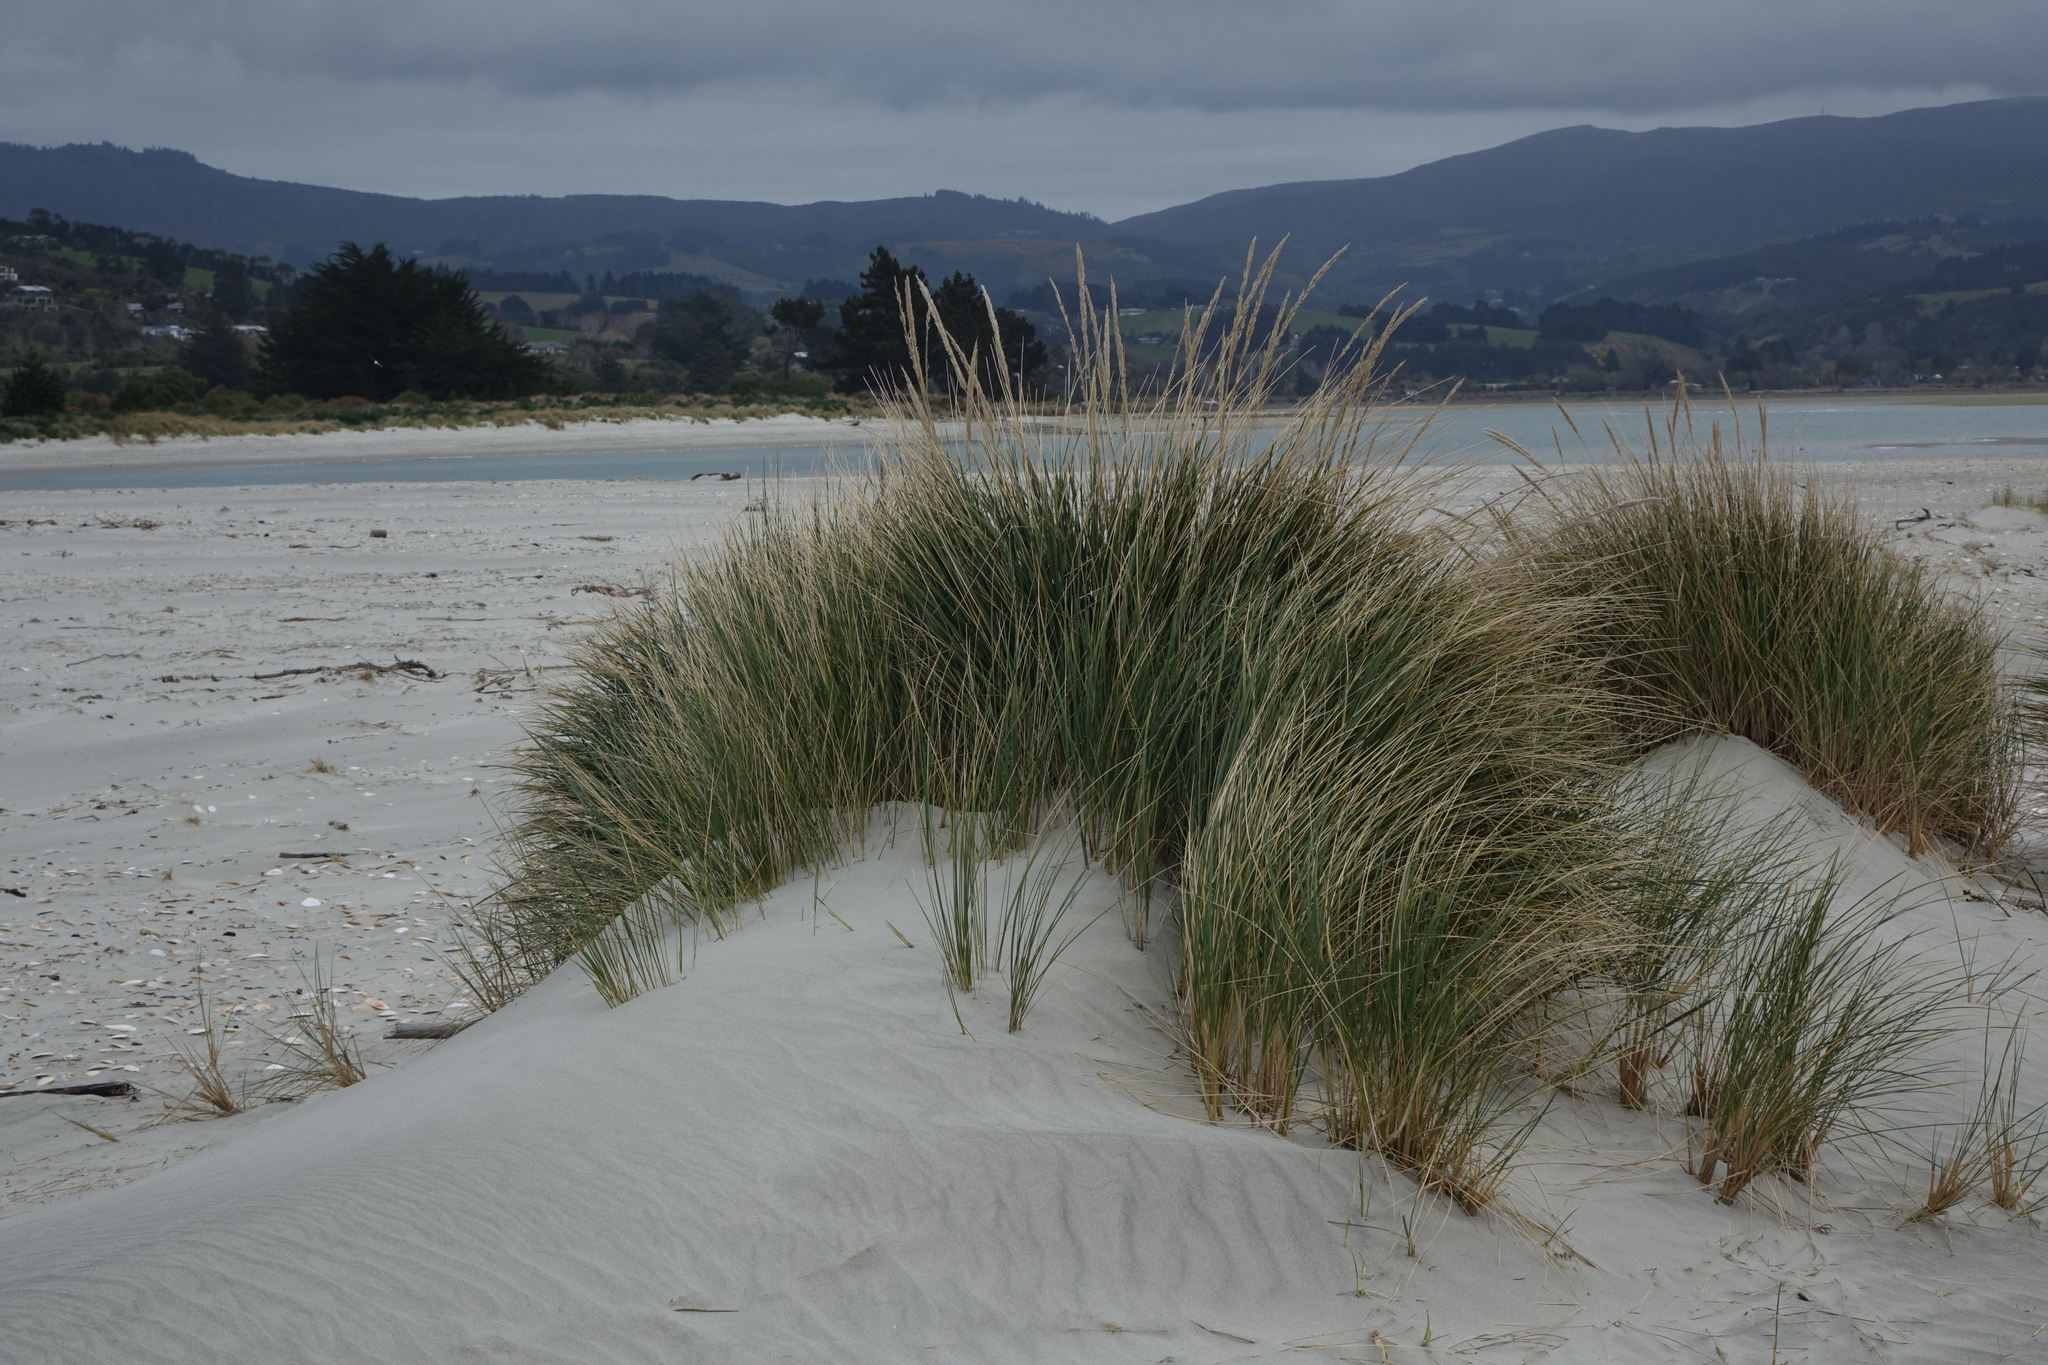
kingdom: Plantae
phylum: Tracheophyta
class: Liliopsida
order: Poales
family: Poaceae
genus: Calamagrostis
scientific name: Calamagrostis arenaria
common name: European beachgrass
